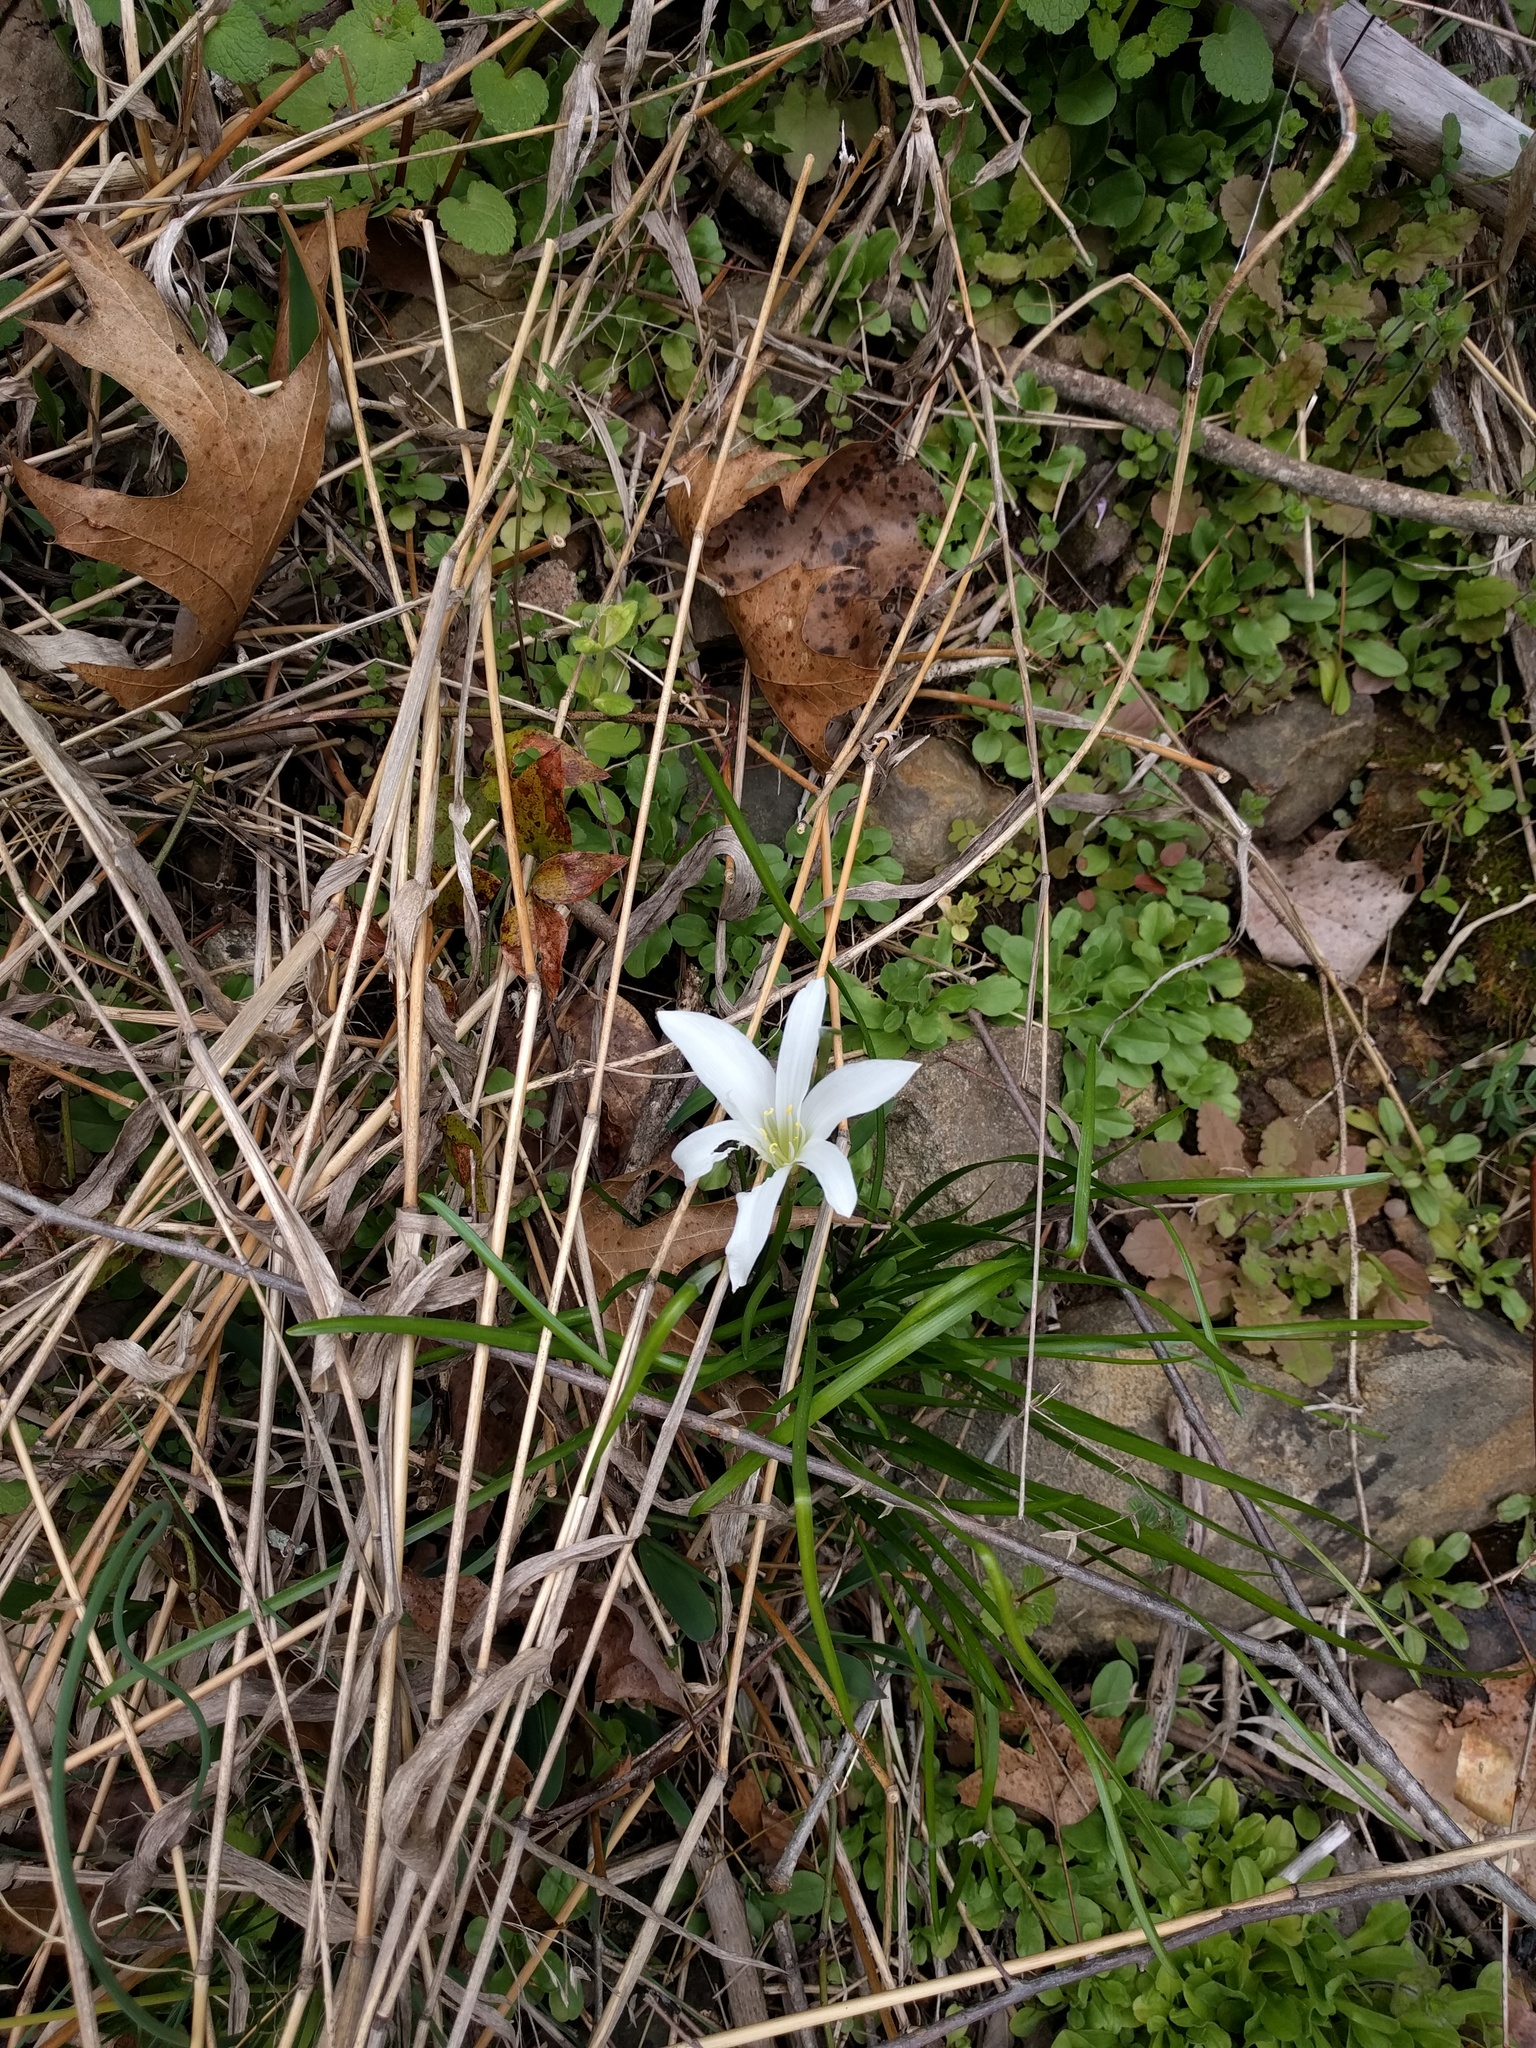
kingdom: Plantae
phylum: Tracheophyta
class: Liliopsida
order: Asparagales
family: Amaryllidaceae
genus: Zephyranthes
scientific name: Zephyranthes atamasco
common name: Atamasco lily
